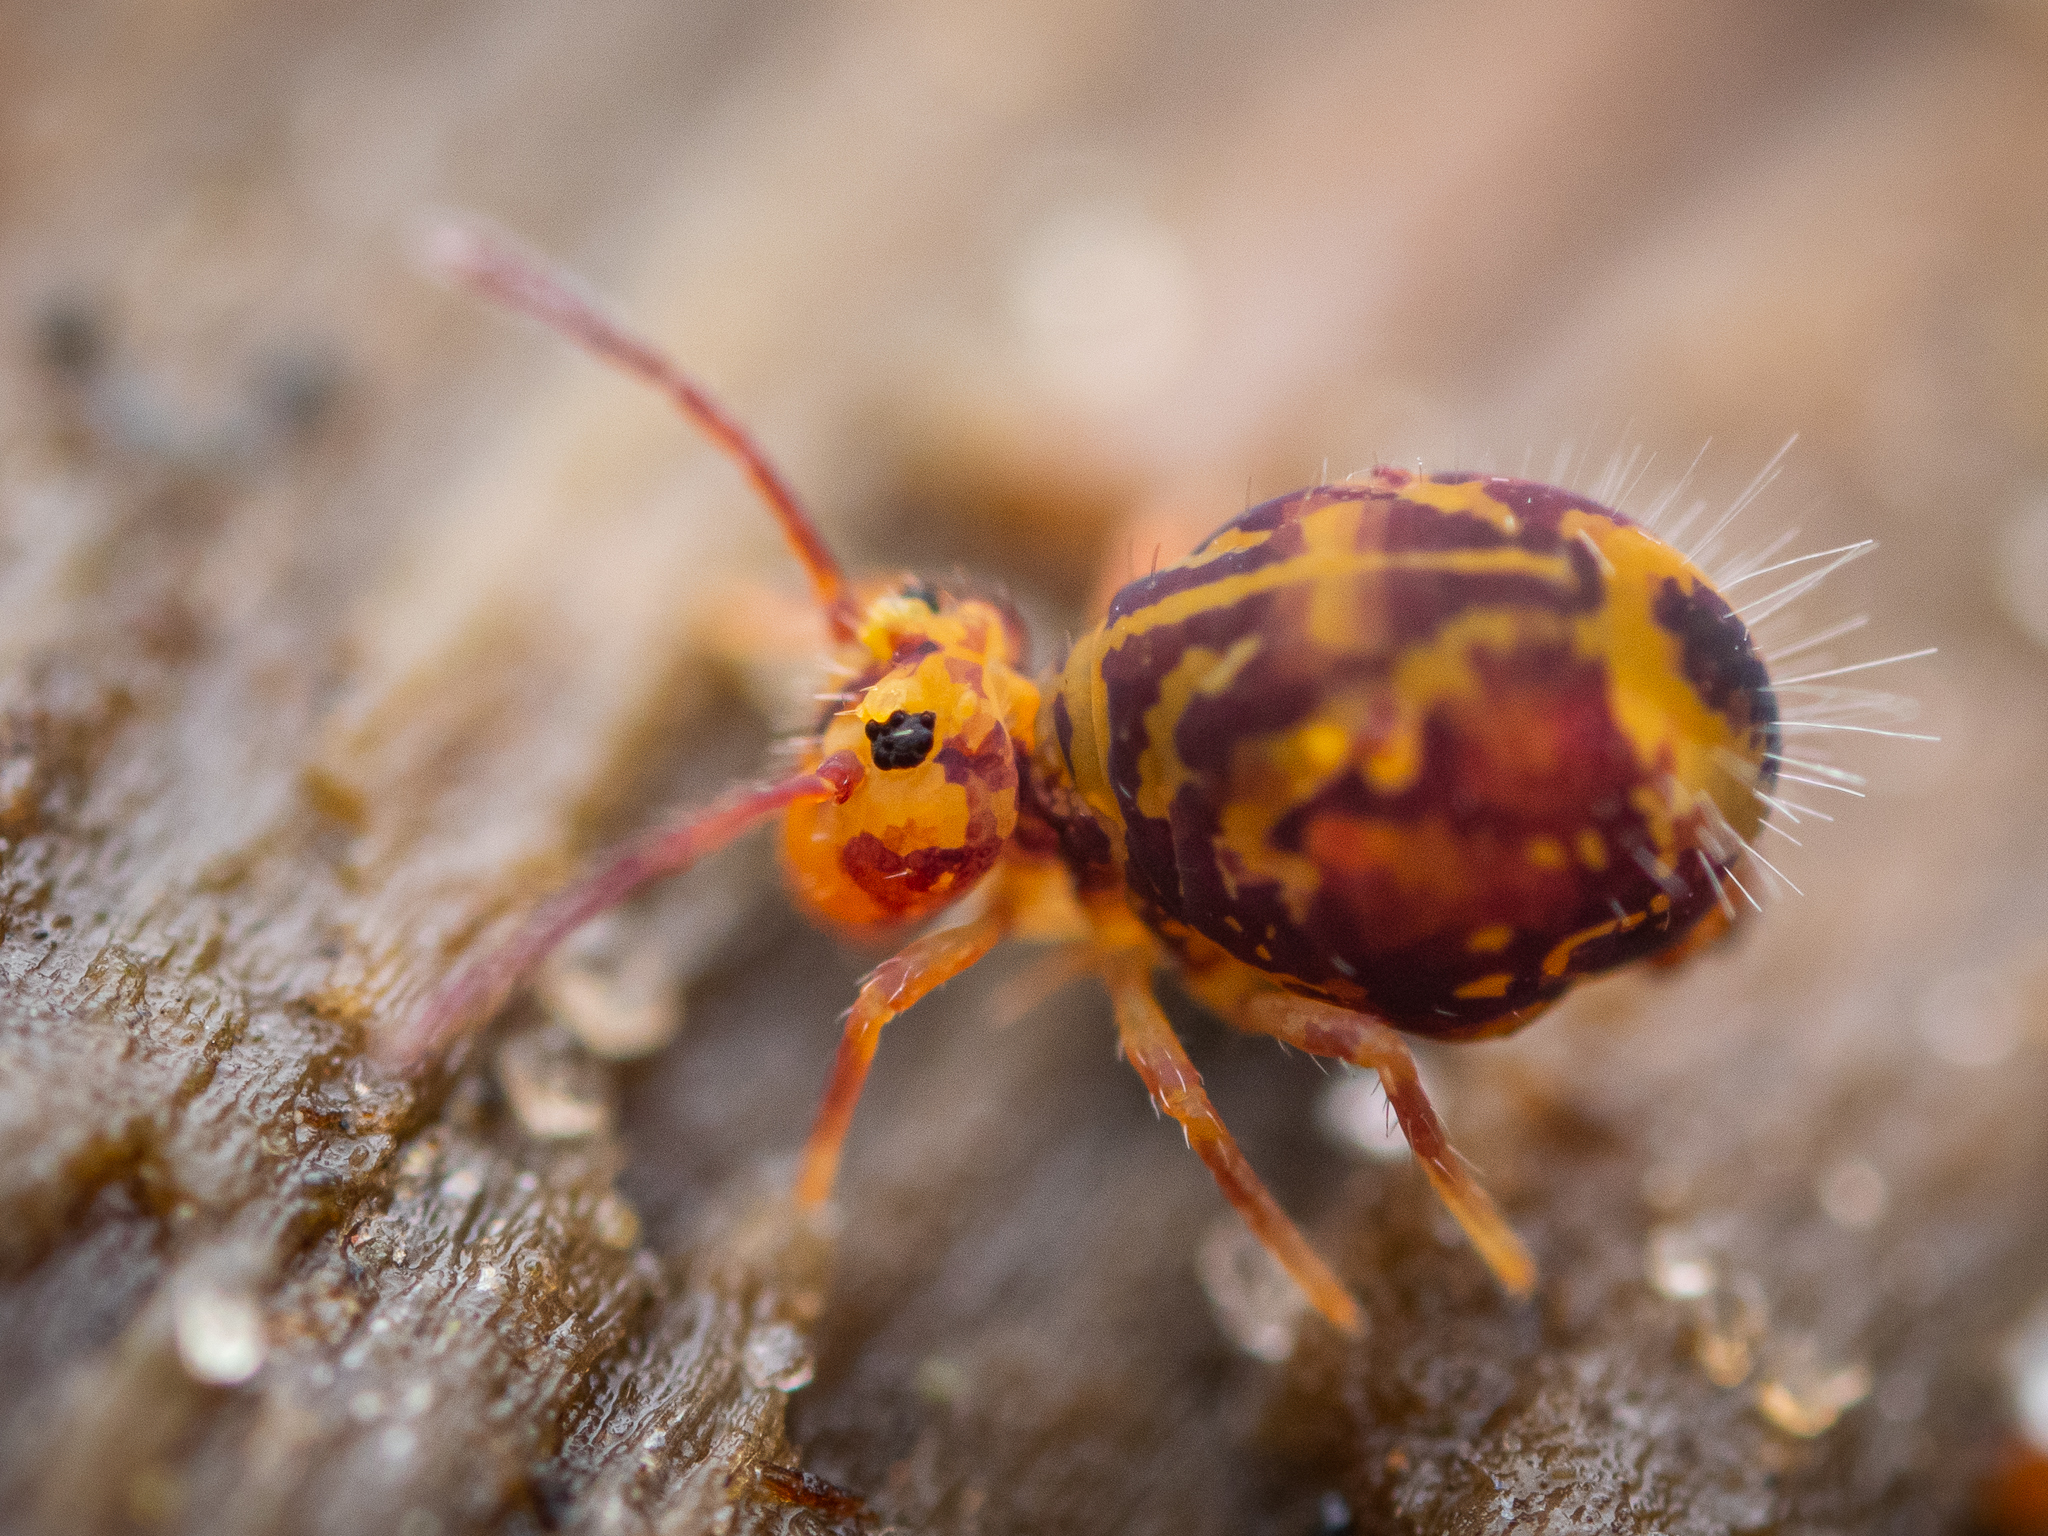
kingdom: Animalia
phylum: Arthropoda
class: Collembola
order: Symphypleona
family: Dicyrtomidae
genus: Dicyrtomina
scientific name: Dicyrtomina ornata
